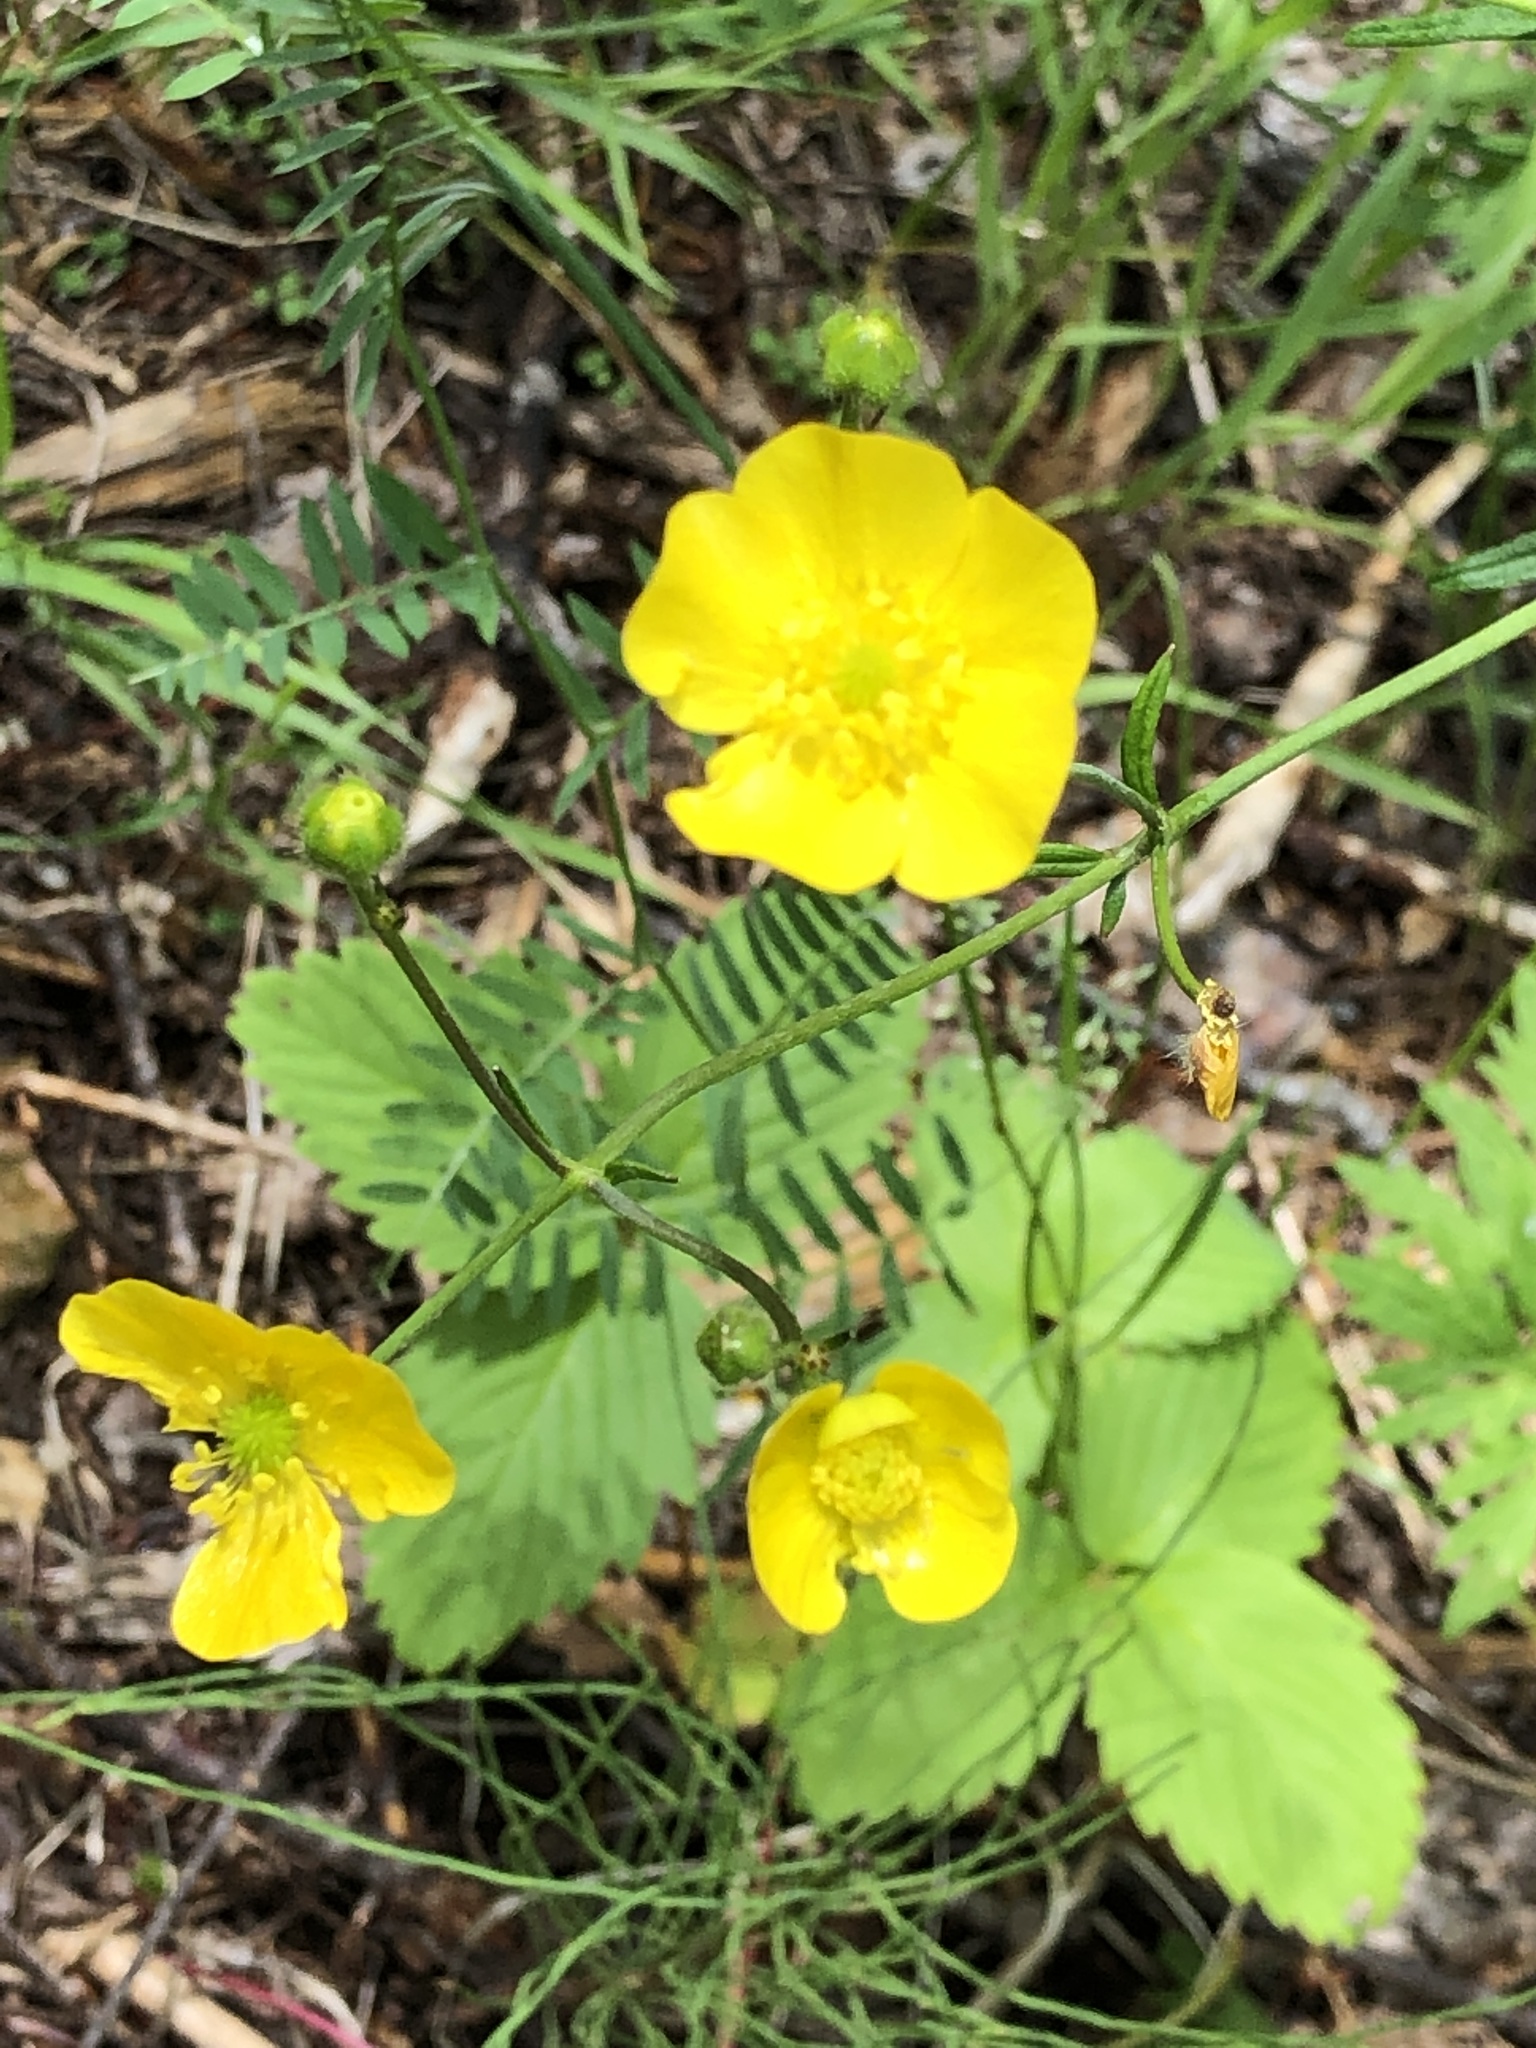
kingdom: Plantae
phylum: Tracheophyta
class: Magnoliopsida
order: Ranunculales
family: Ranunculaceae
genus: Ranunculus
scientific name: Ranunculus acris
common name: Meadow buttercup
